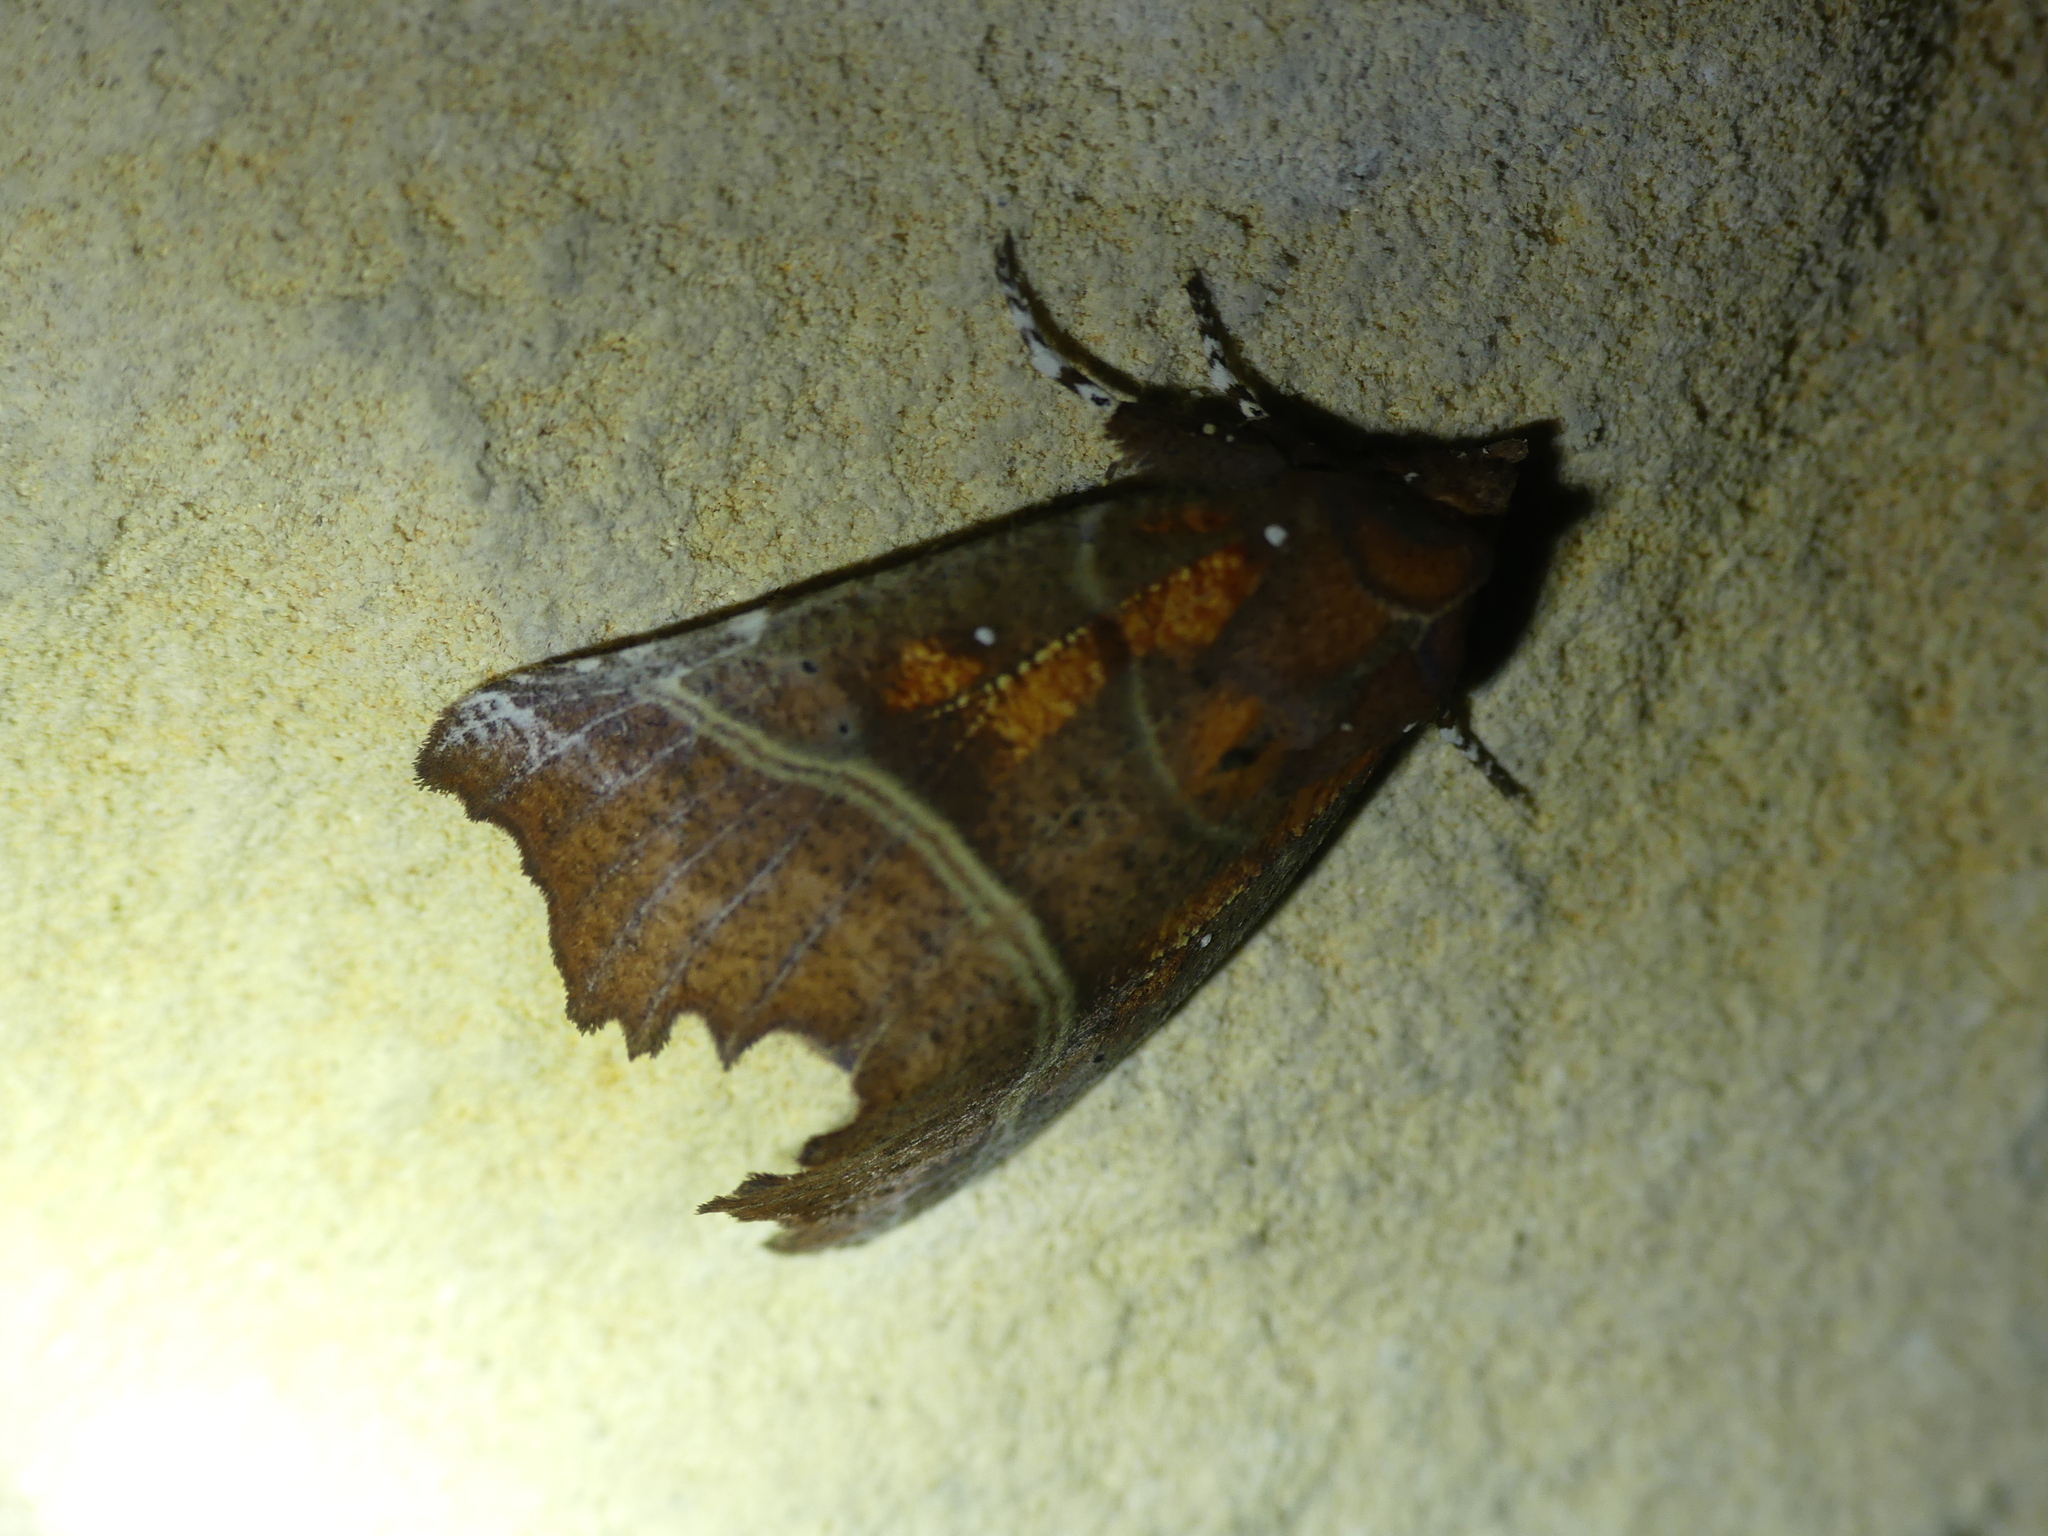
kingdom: Animalia
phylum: Arthropoda
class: Insecta
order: Lepidoptera
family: Erebidae
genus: Scoliopteryx
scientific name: Scoliopteryx libatrix
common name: Herald
